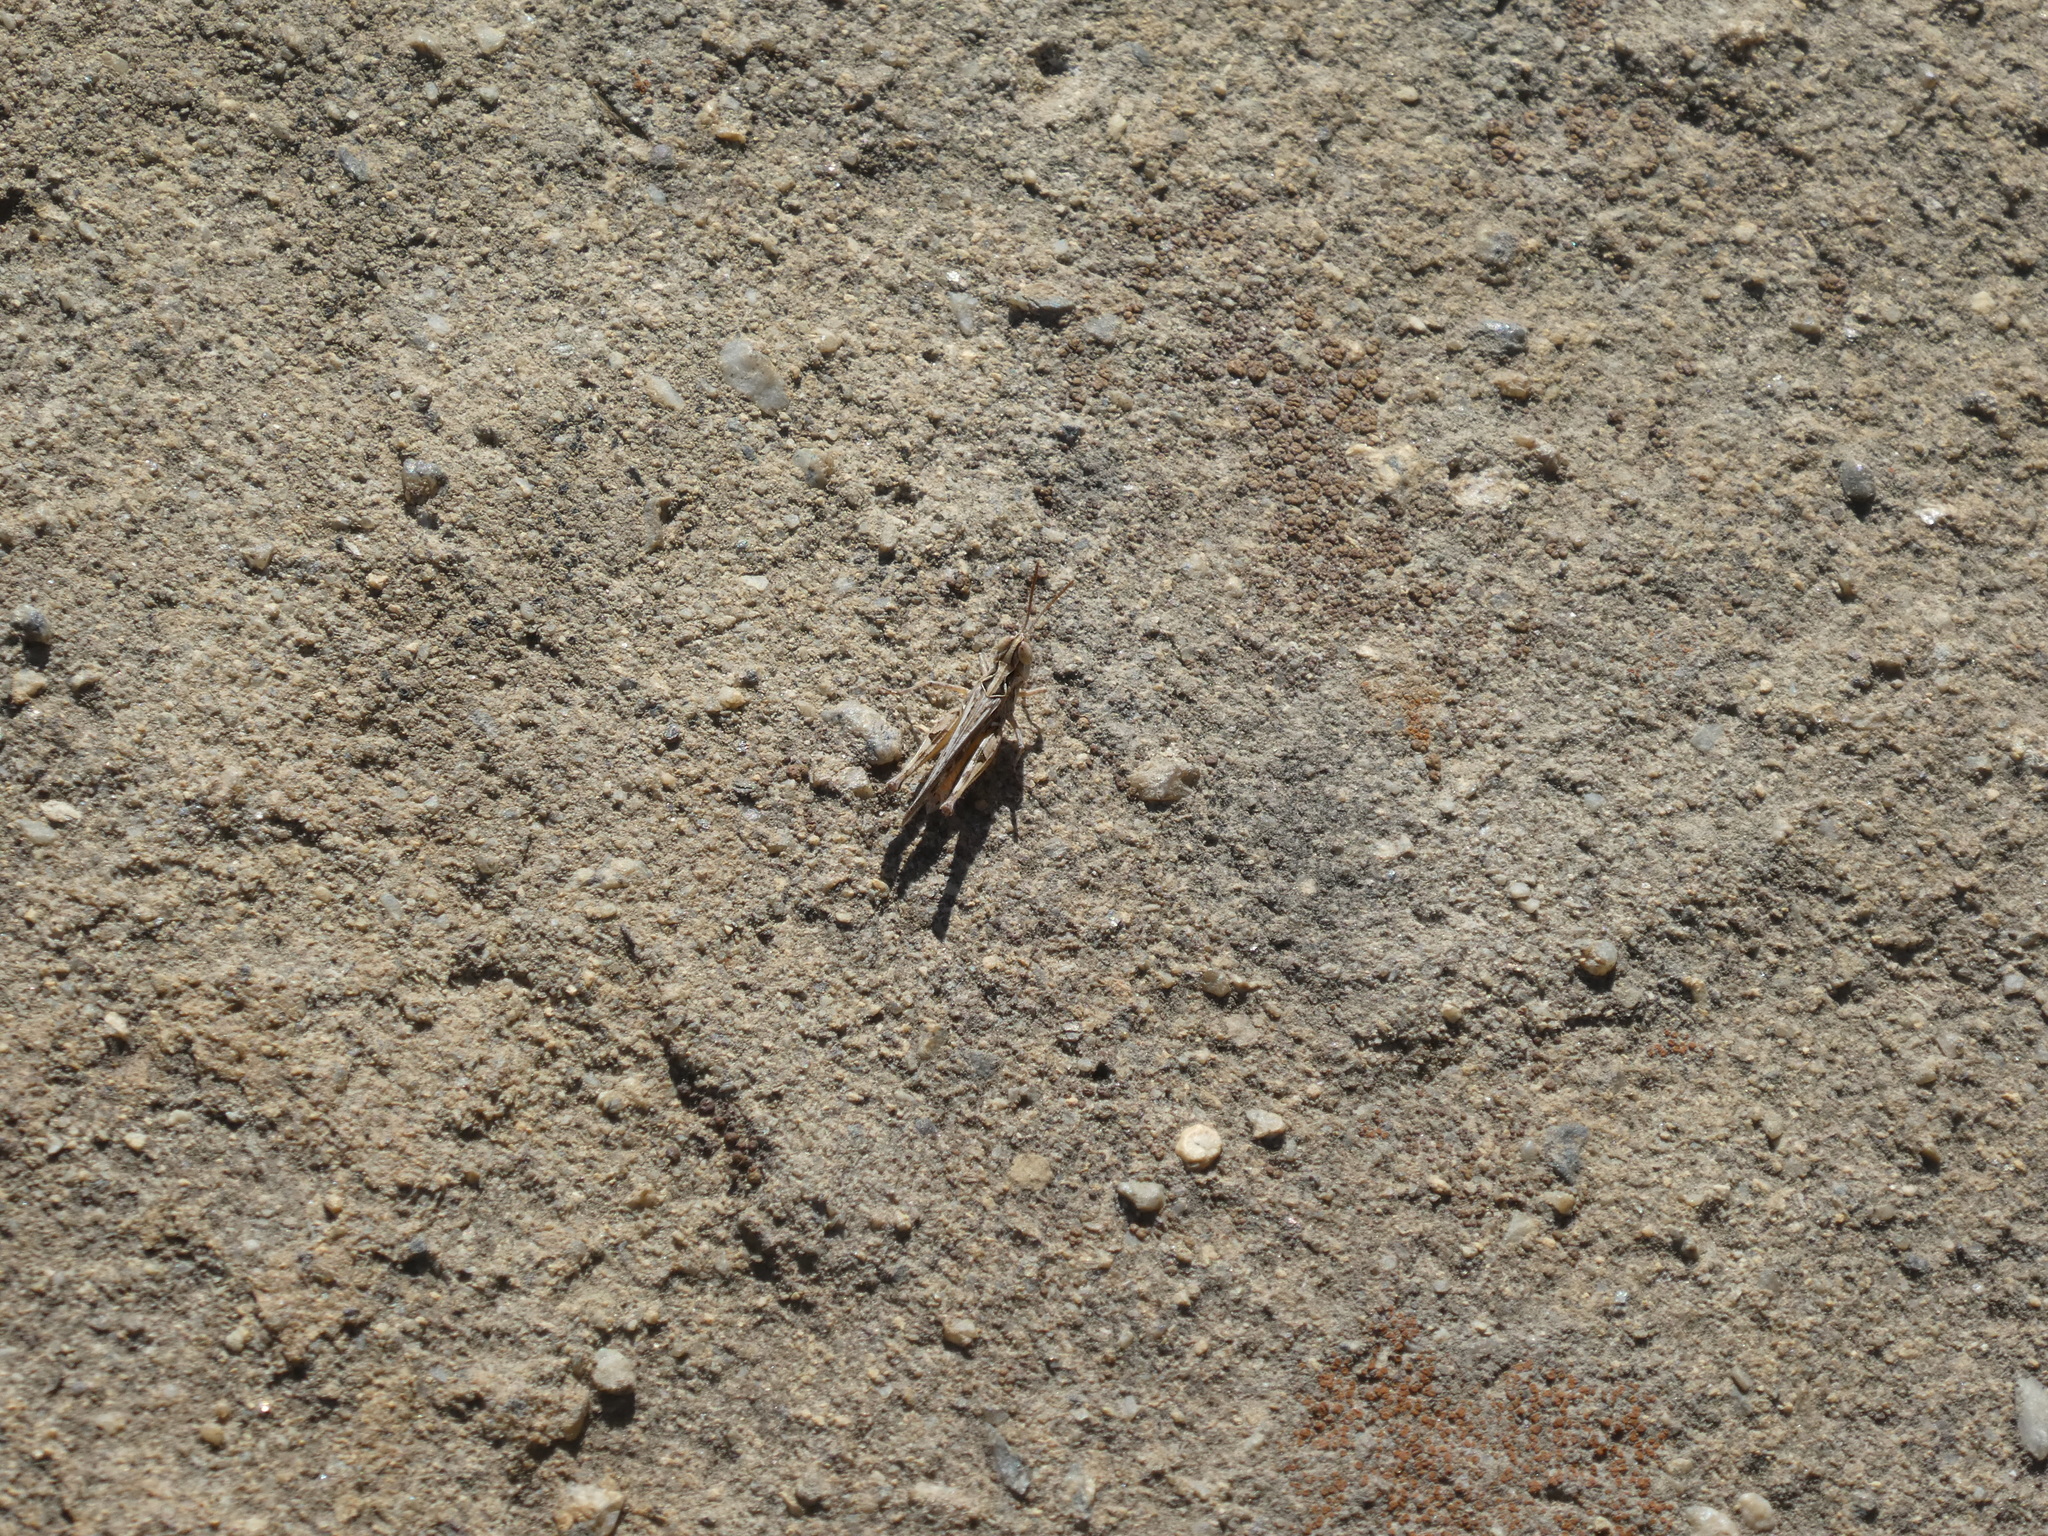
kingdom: Animalia
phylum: Arthropoda
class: Insecta
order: Orthoptera
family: Acrididae
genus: Psoloessa
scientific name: Psoloessa texana
